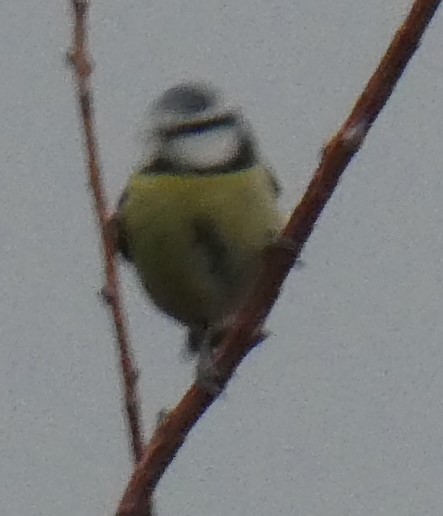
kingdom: Animalia
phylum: Chordata
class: Aves
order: Passeriformes
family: Paridae
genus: Cyanistes
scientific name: Cyanistes caeruleus
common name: Eurasian blue tit
